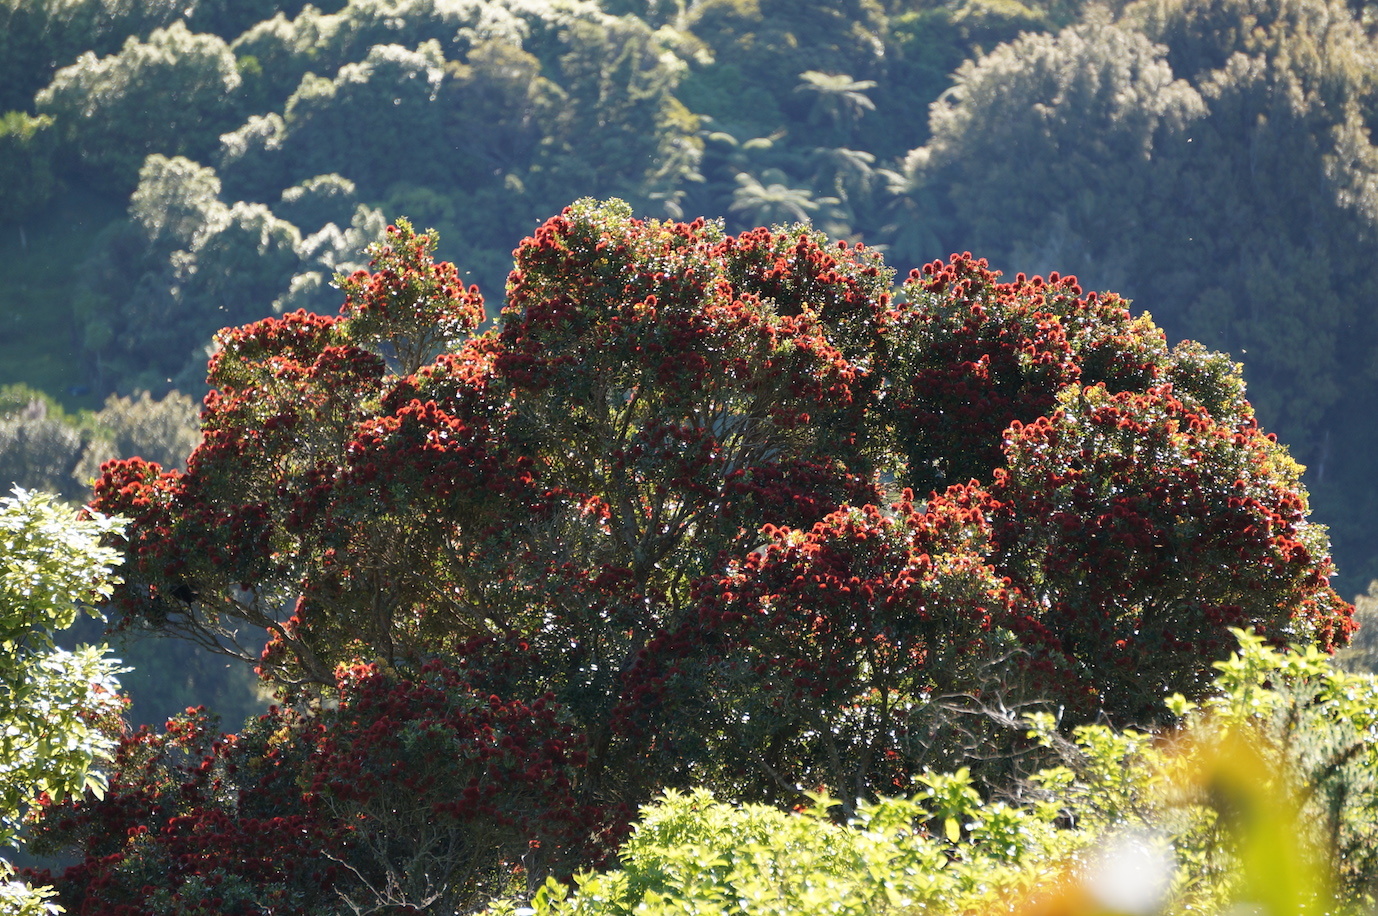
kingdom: Plantae
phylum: Tracheophyta
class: Magnoliopsida
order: Myrtales
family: Myrtaceae
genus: Metrosideros
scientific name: Metrosideros robusta
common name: Northern rata
